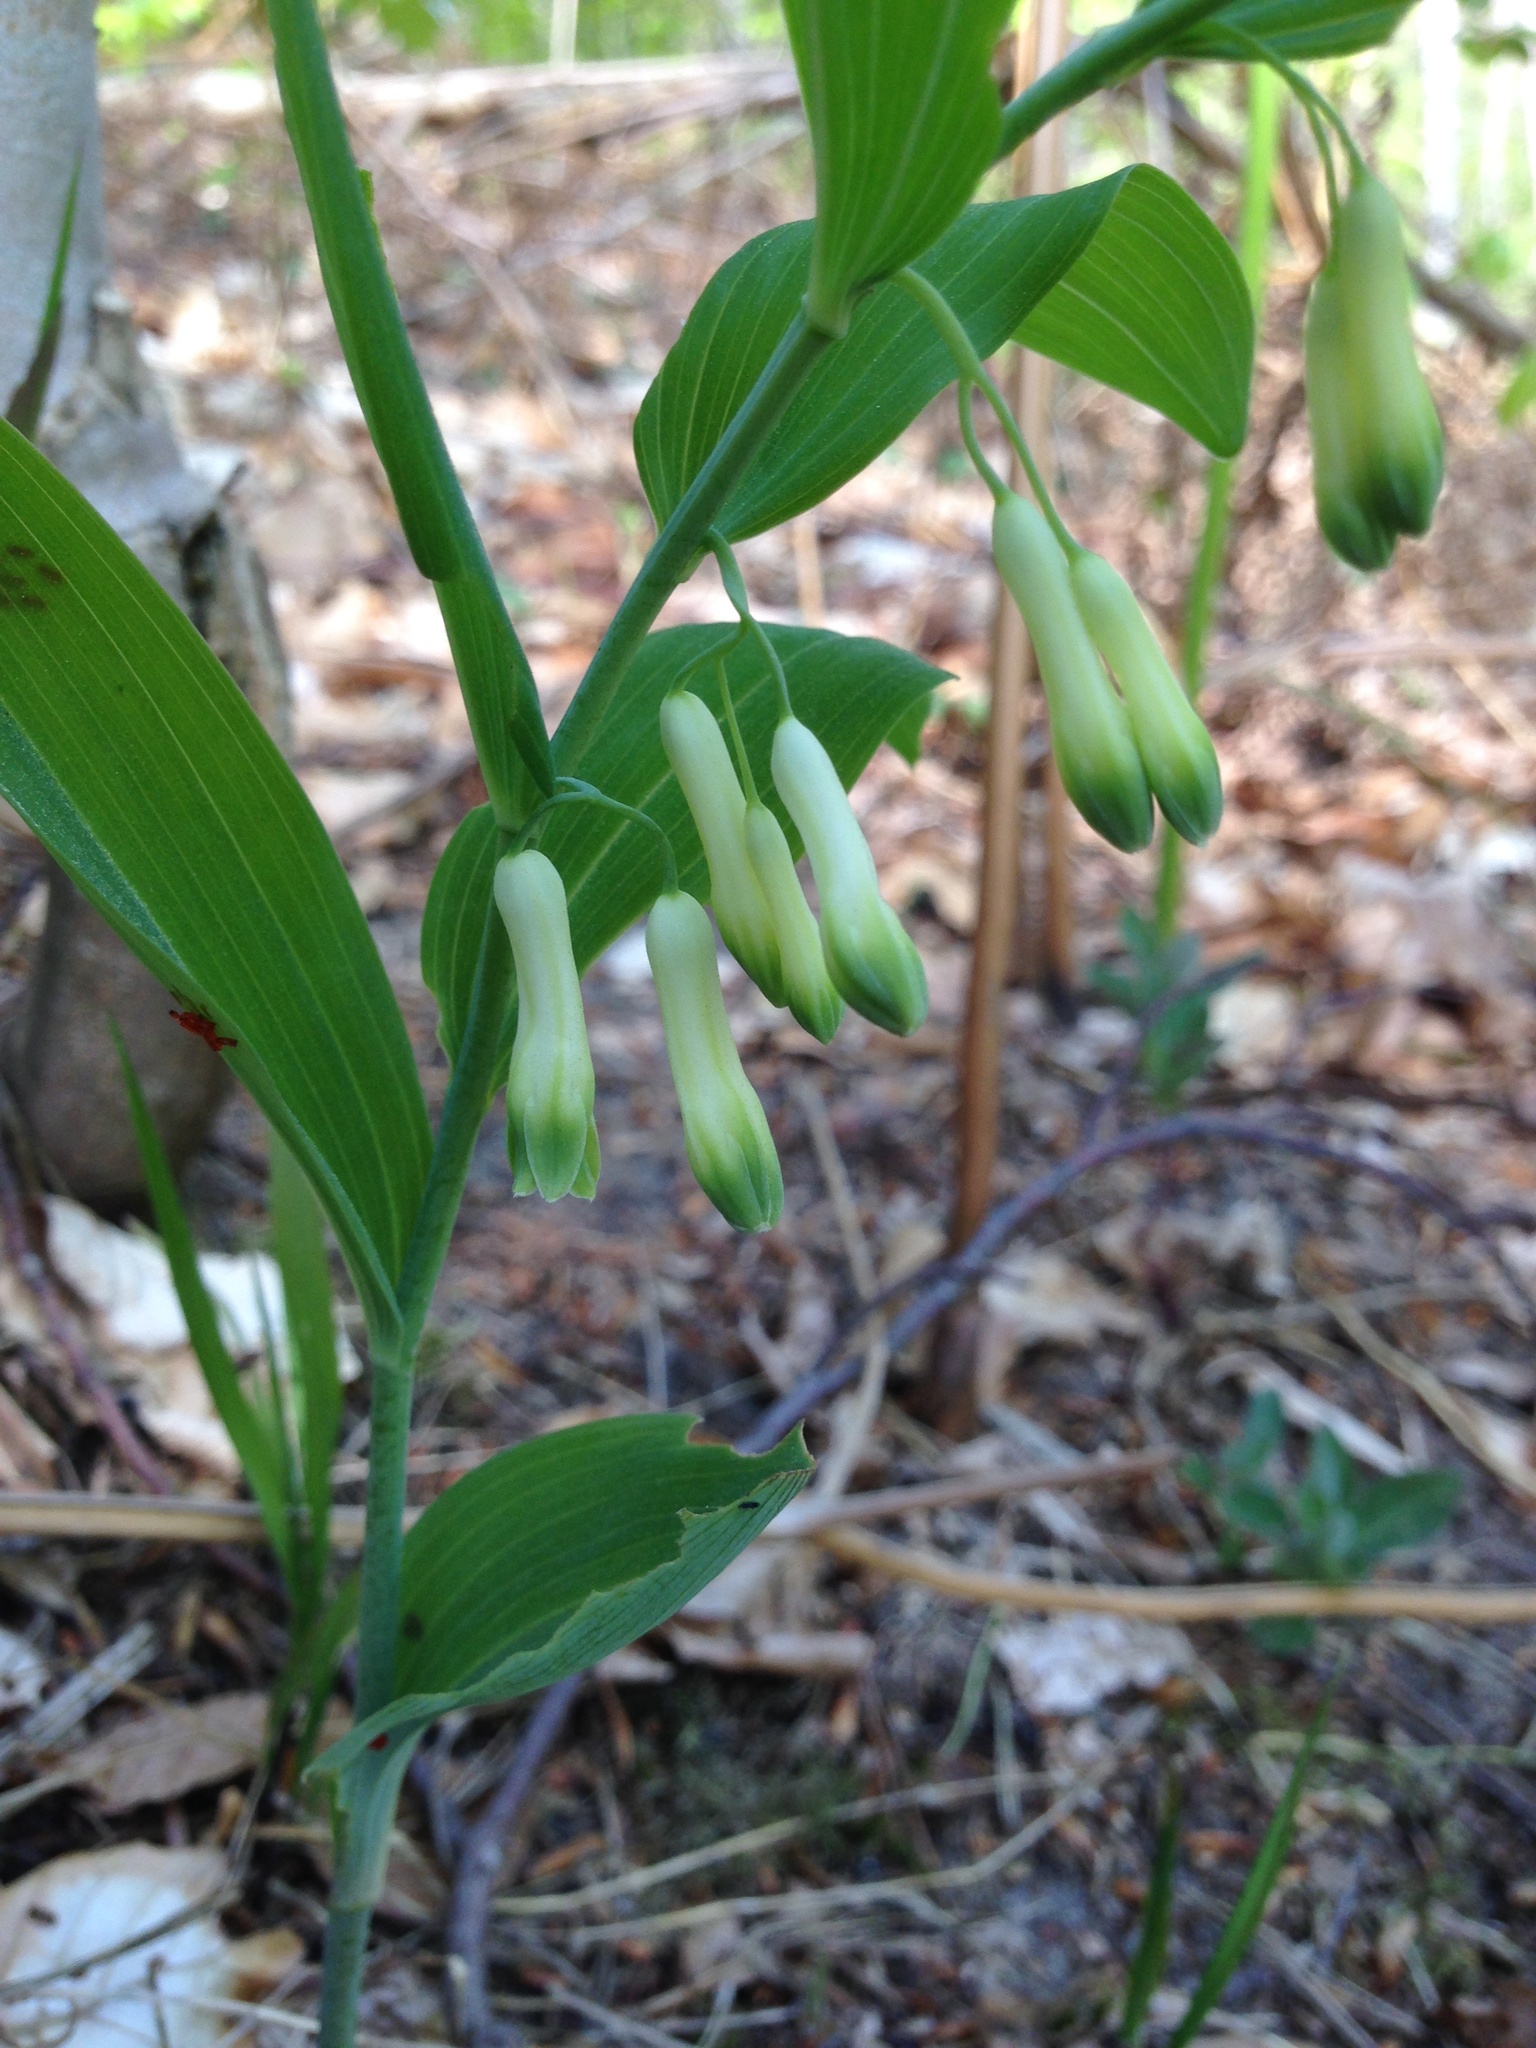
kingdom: Plantae
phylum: Tracheophyta
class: Liliopsida
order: Asparagales
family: Asparagaceae
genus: Polygonatum
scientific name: Polygonatum multiflorum
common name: Solomon's-seal
